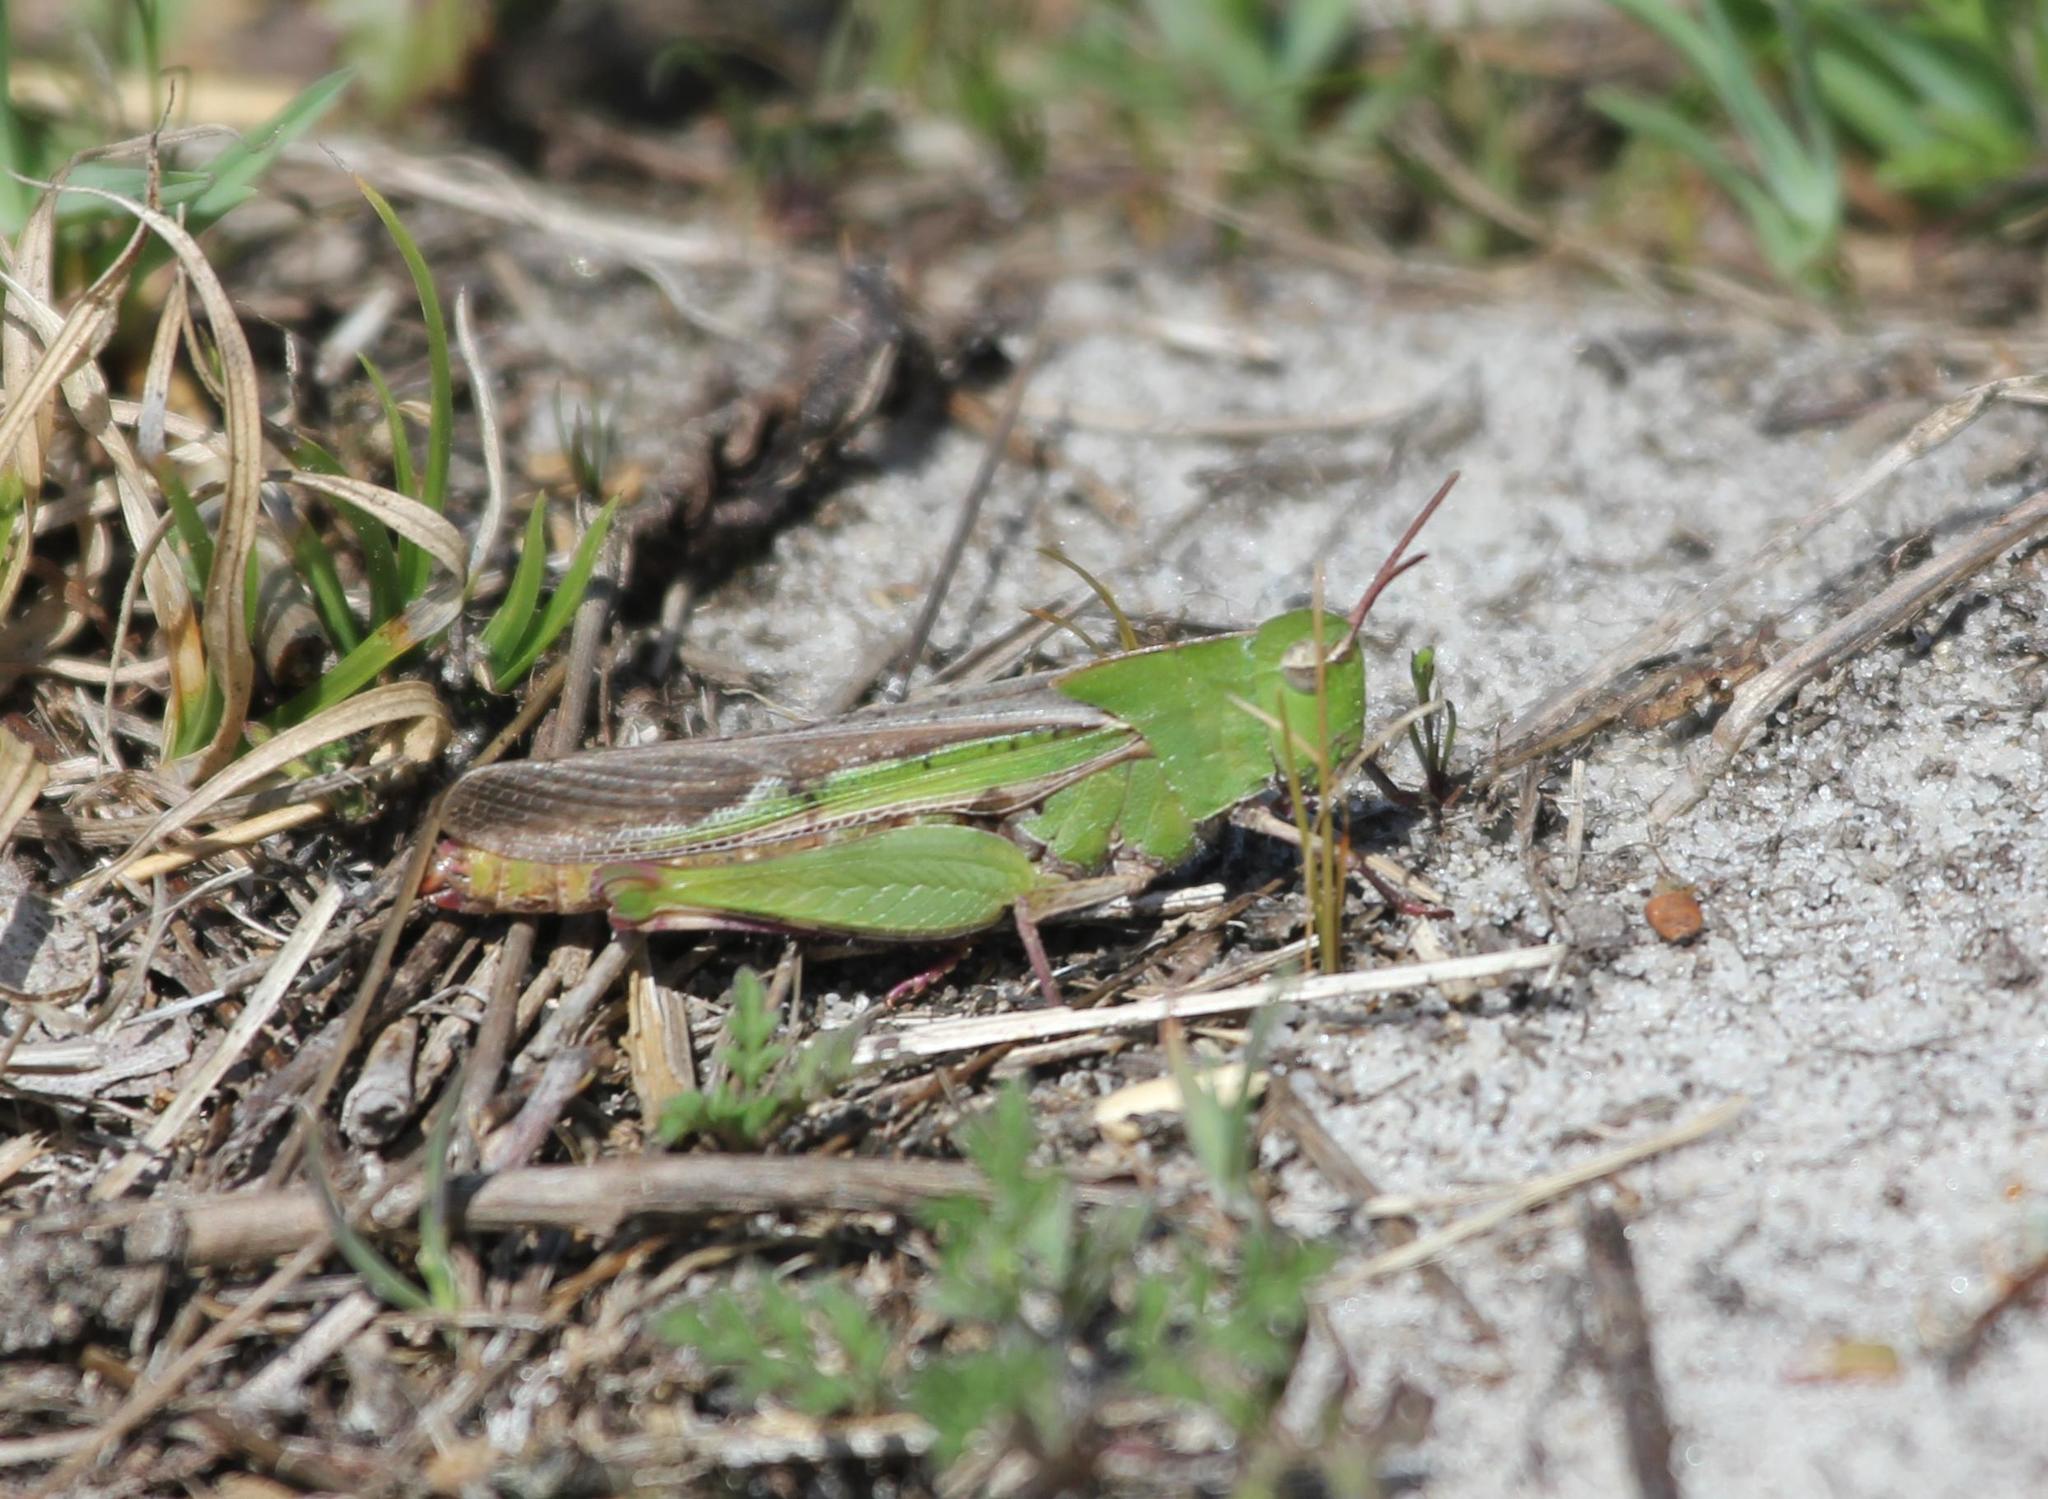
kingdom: Animalia
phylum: Arthropoda
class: Insecta
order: Orthoptera
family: Acrididae
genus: Chortophaga
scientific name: Chortophaga viridifasciata
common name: Green-striped grasshopper
